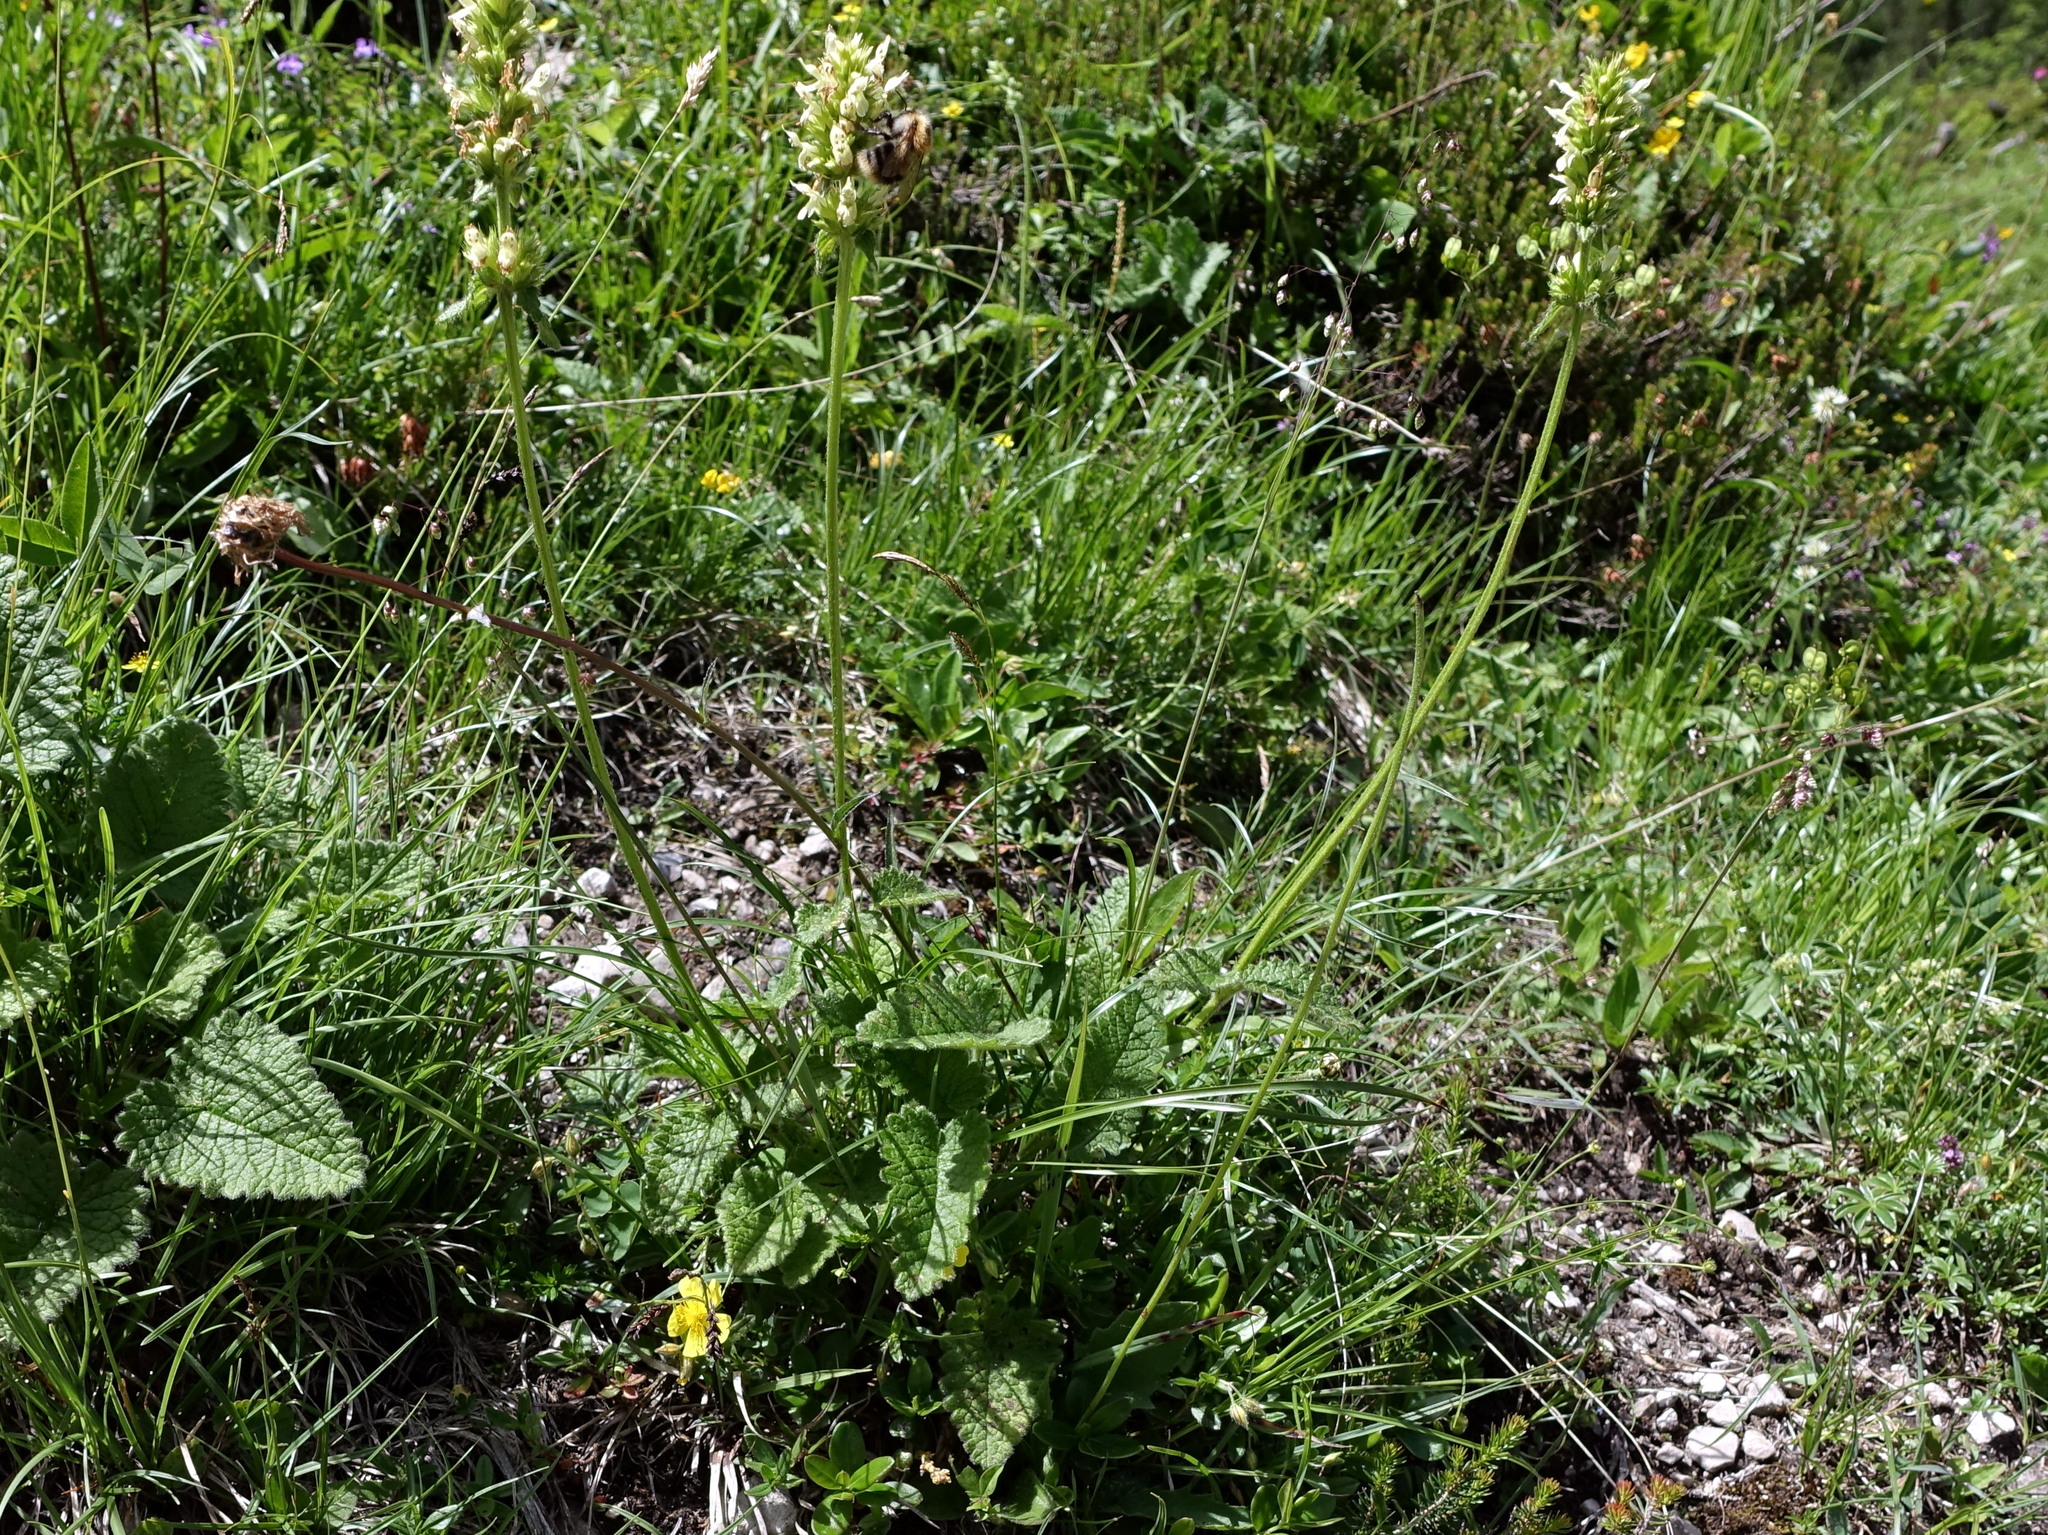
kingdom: Plantae
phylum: Tracheophyta
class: Magnoliopsida
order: Lamiales
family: Lamiaceae
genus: Betonica
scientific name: Betonica alopecuros
